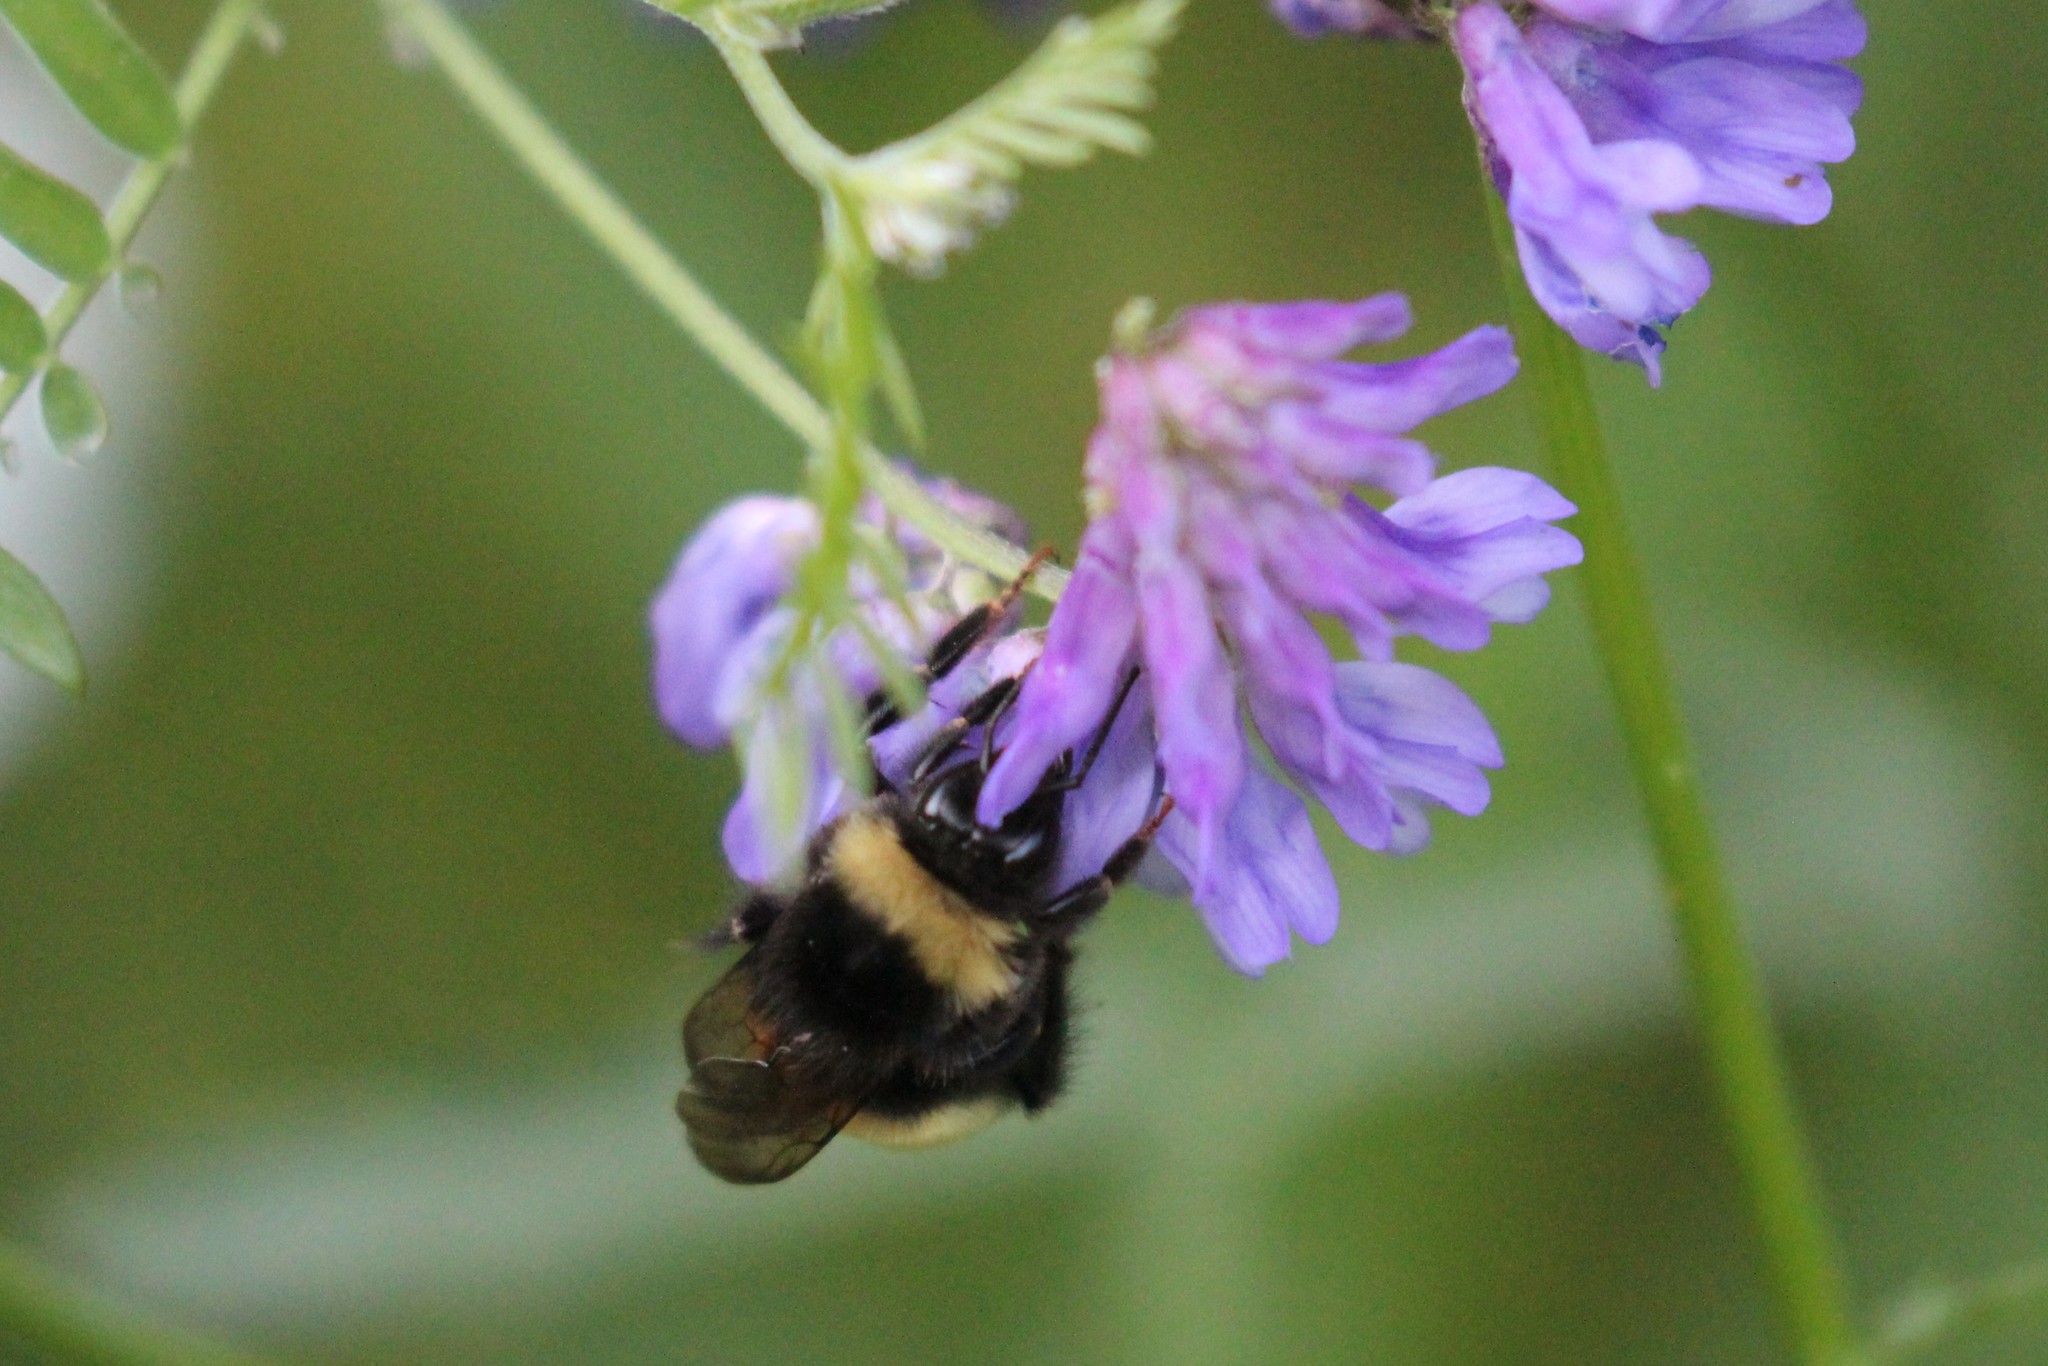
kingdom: Animalia
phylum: Arthropoda
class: Insecta
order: Hymenoptera
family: Apidae
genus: Bombus
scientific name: Bombus terricola
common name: Yellow-banded bumble bee
